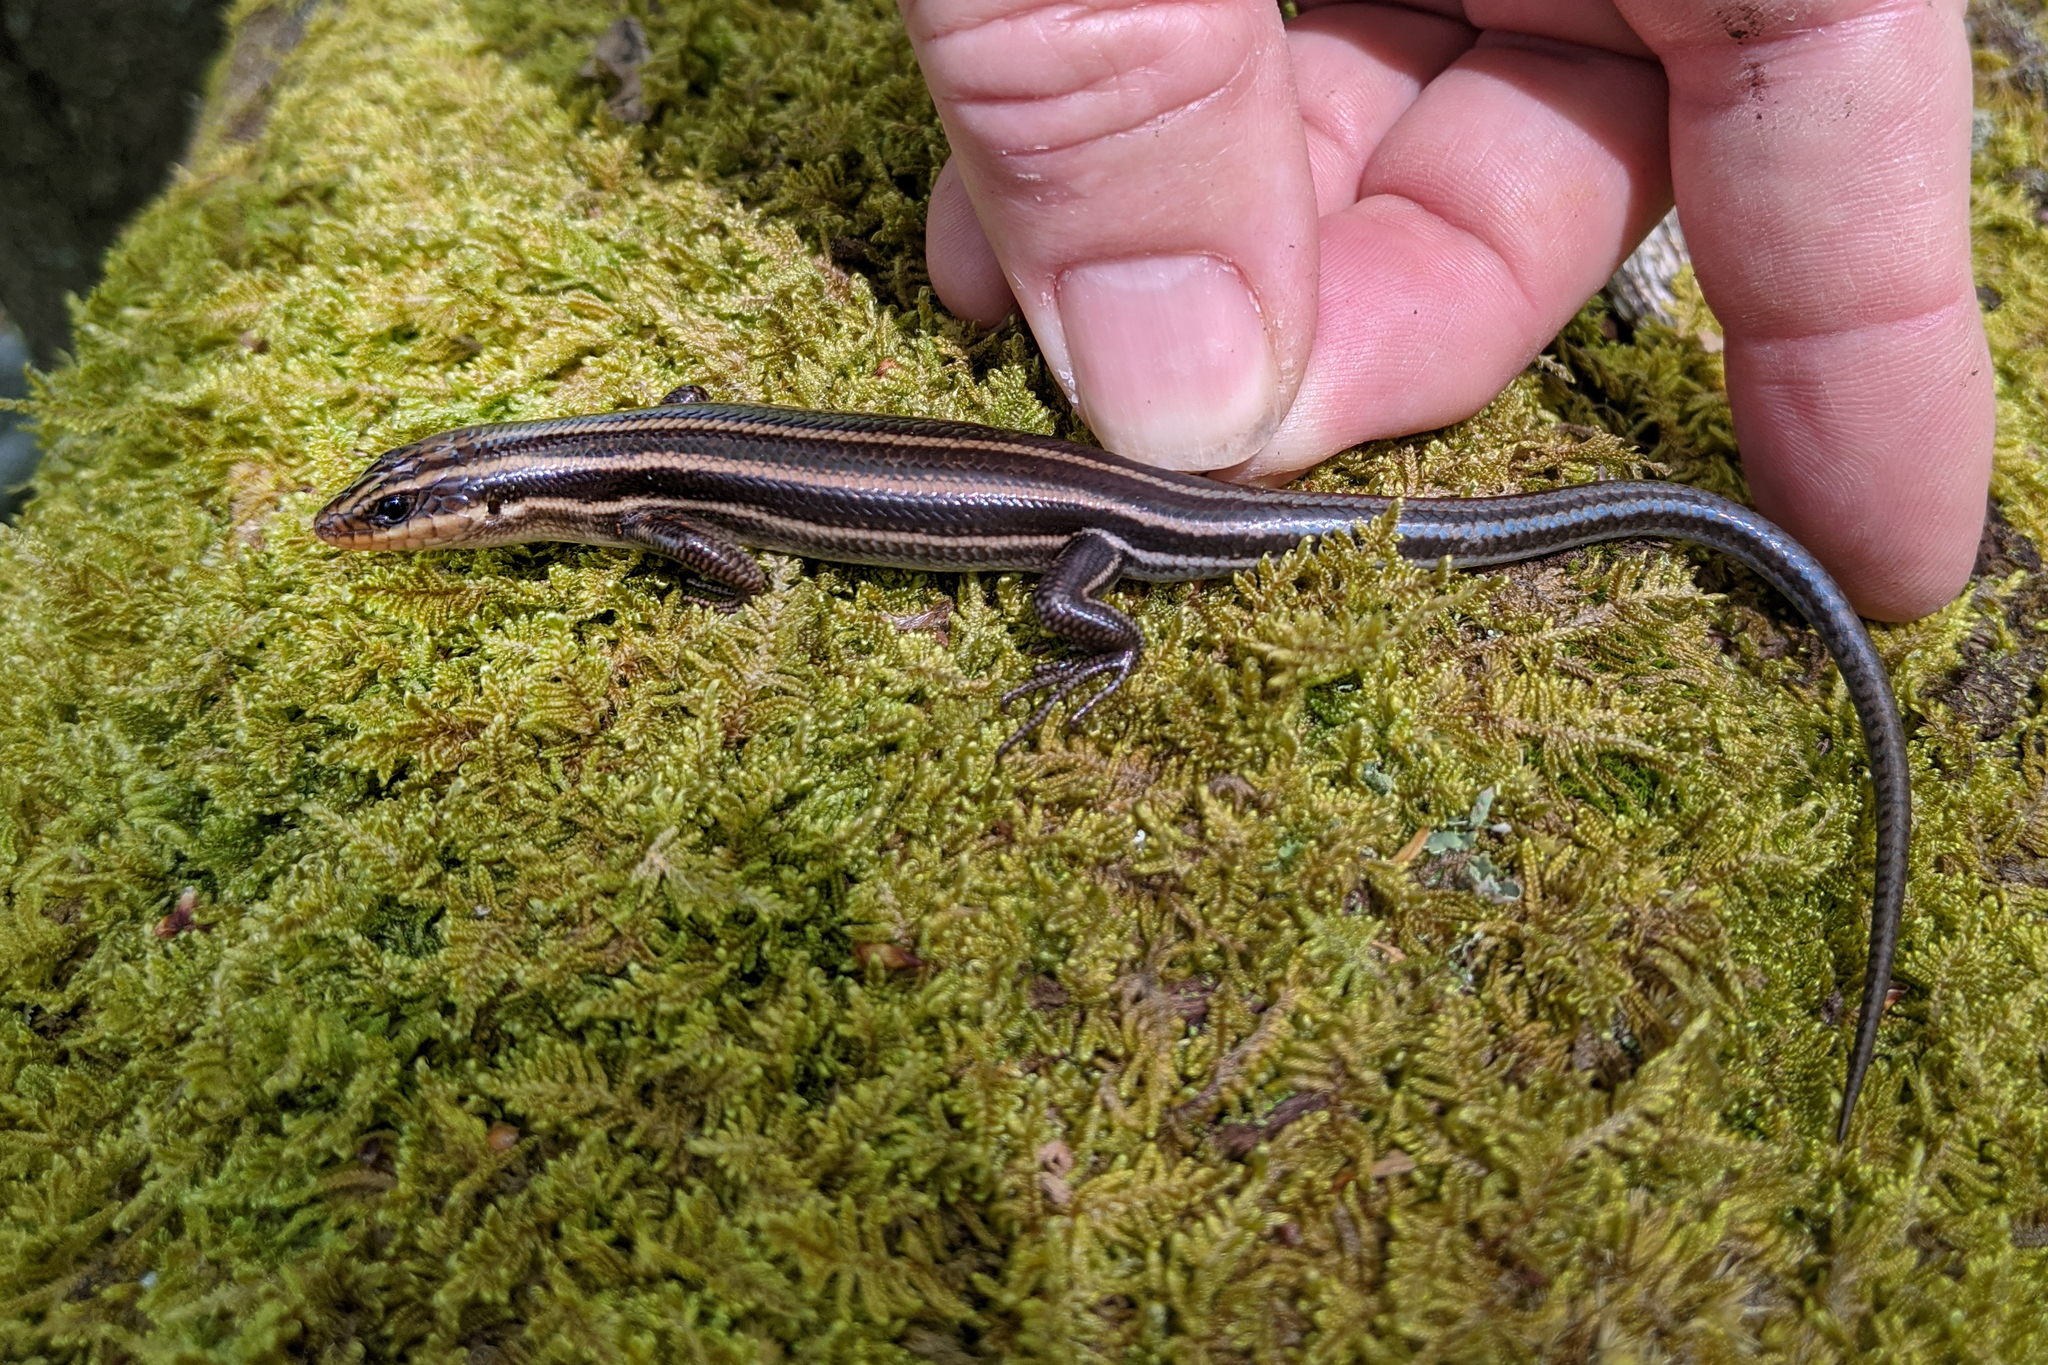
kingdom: Animalia
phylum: Chordata
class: Squamata
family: Scincidae
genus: Plestiodon
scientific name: Plestiodon fasciatus
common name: Five-lined skink
